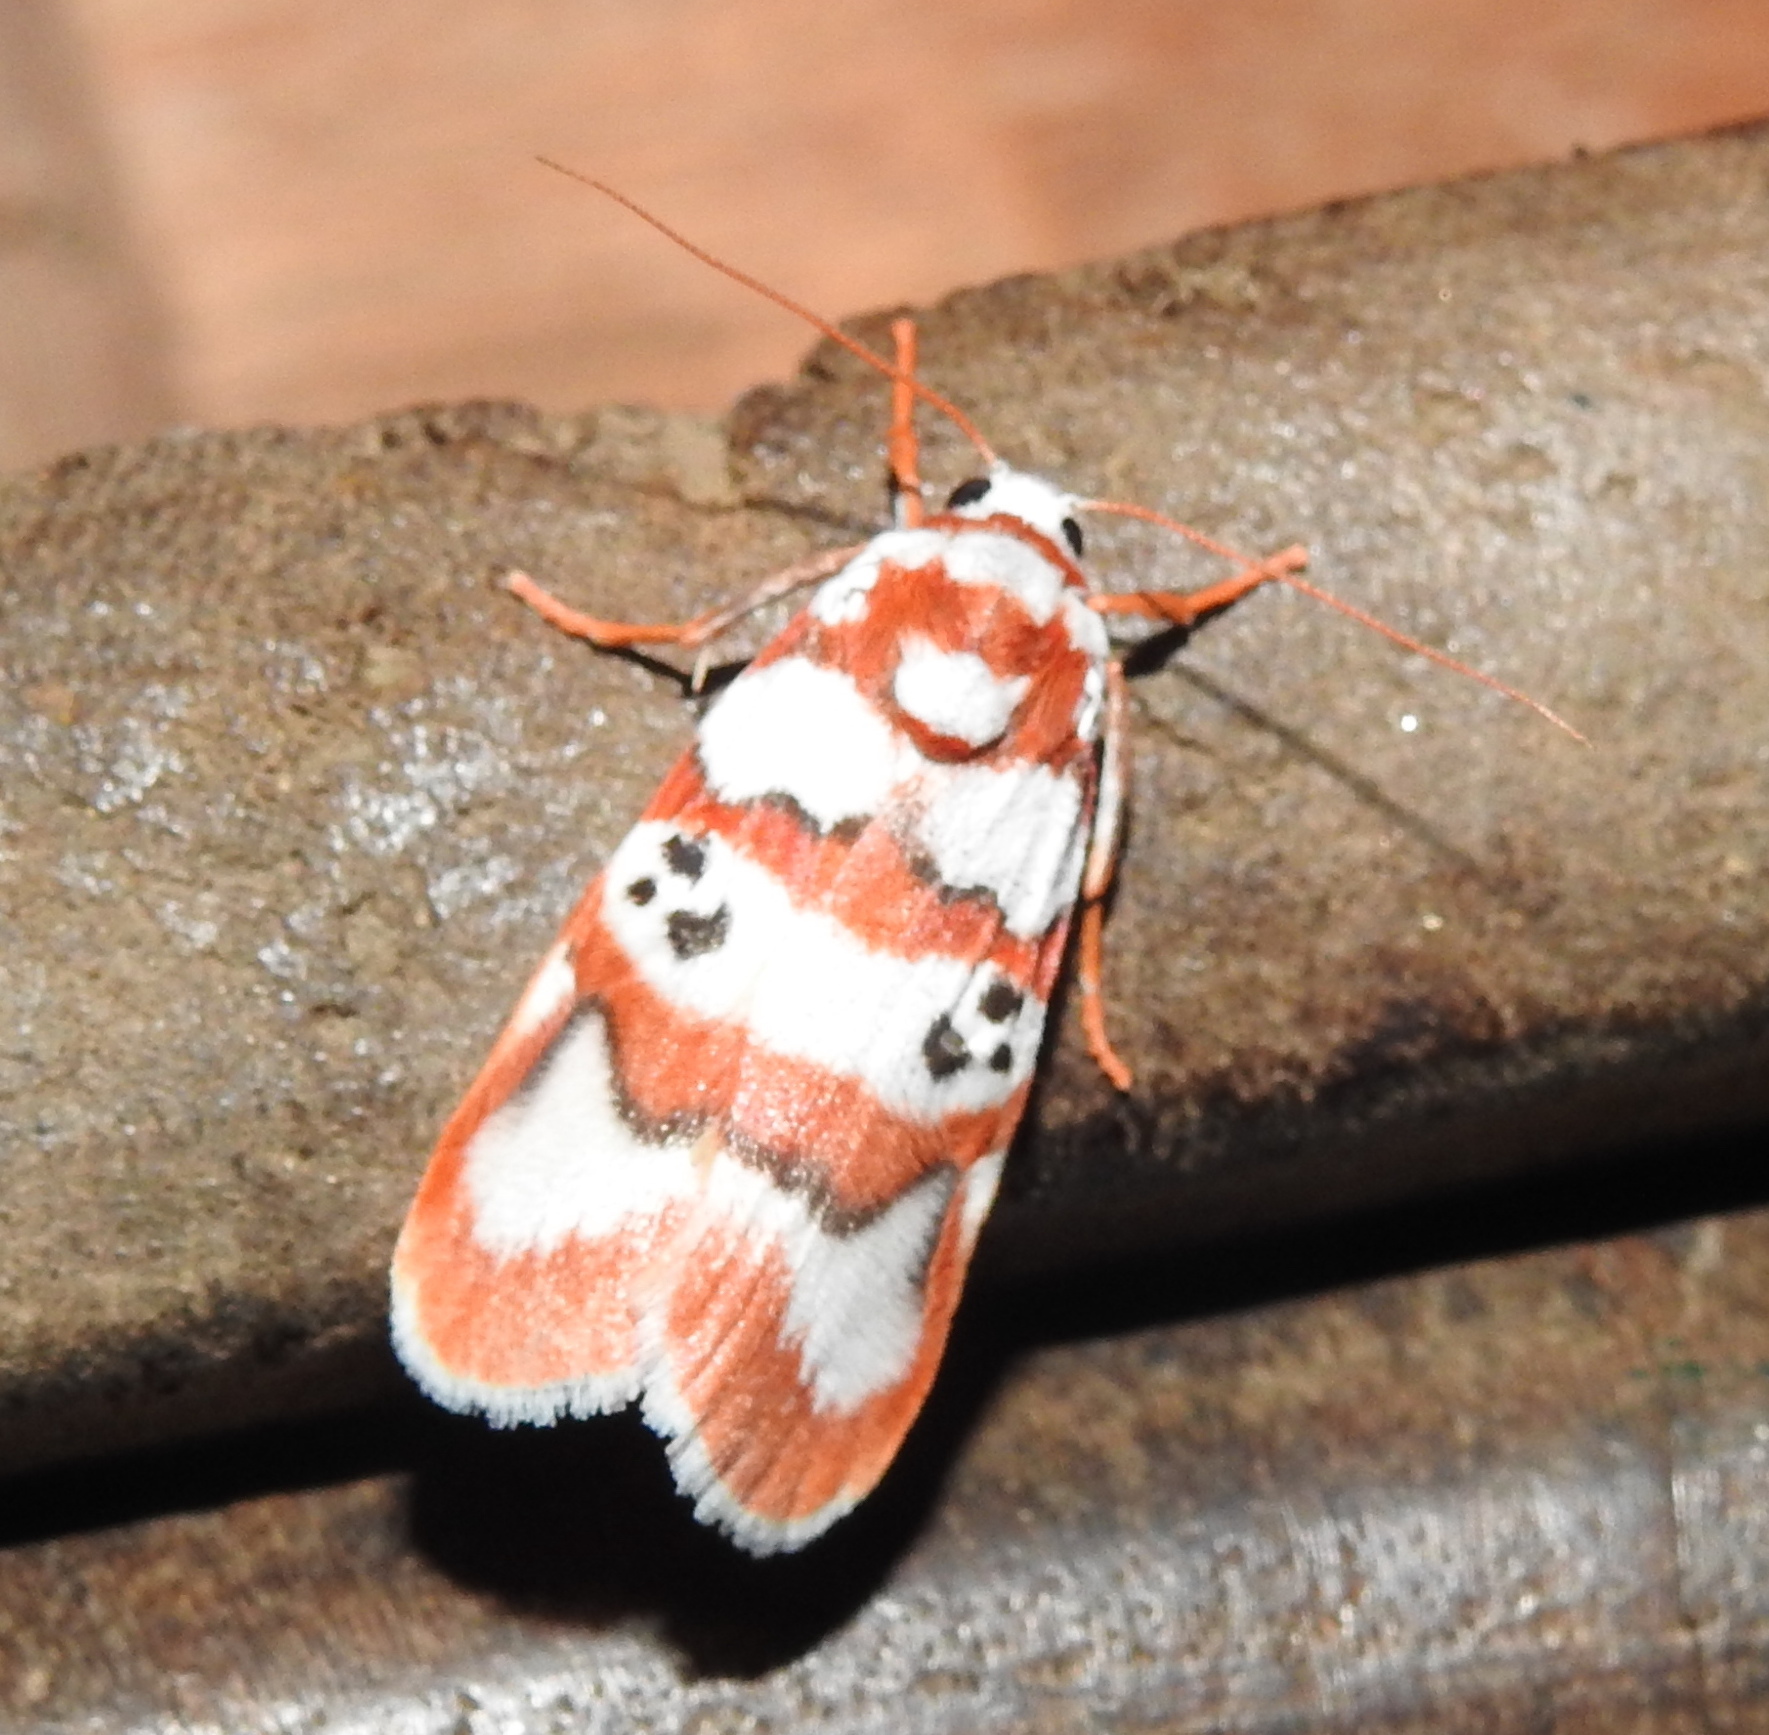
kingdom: Animalia
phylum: Arthropoda
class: Insecta
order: Lepidoptera
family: Erebidae
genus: Cyana
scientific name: Cyana bhatejai
